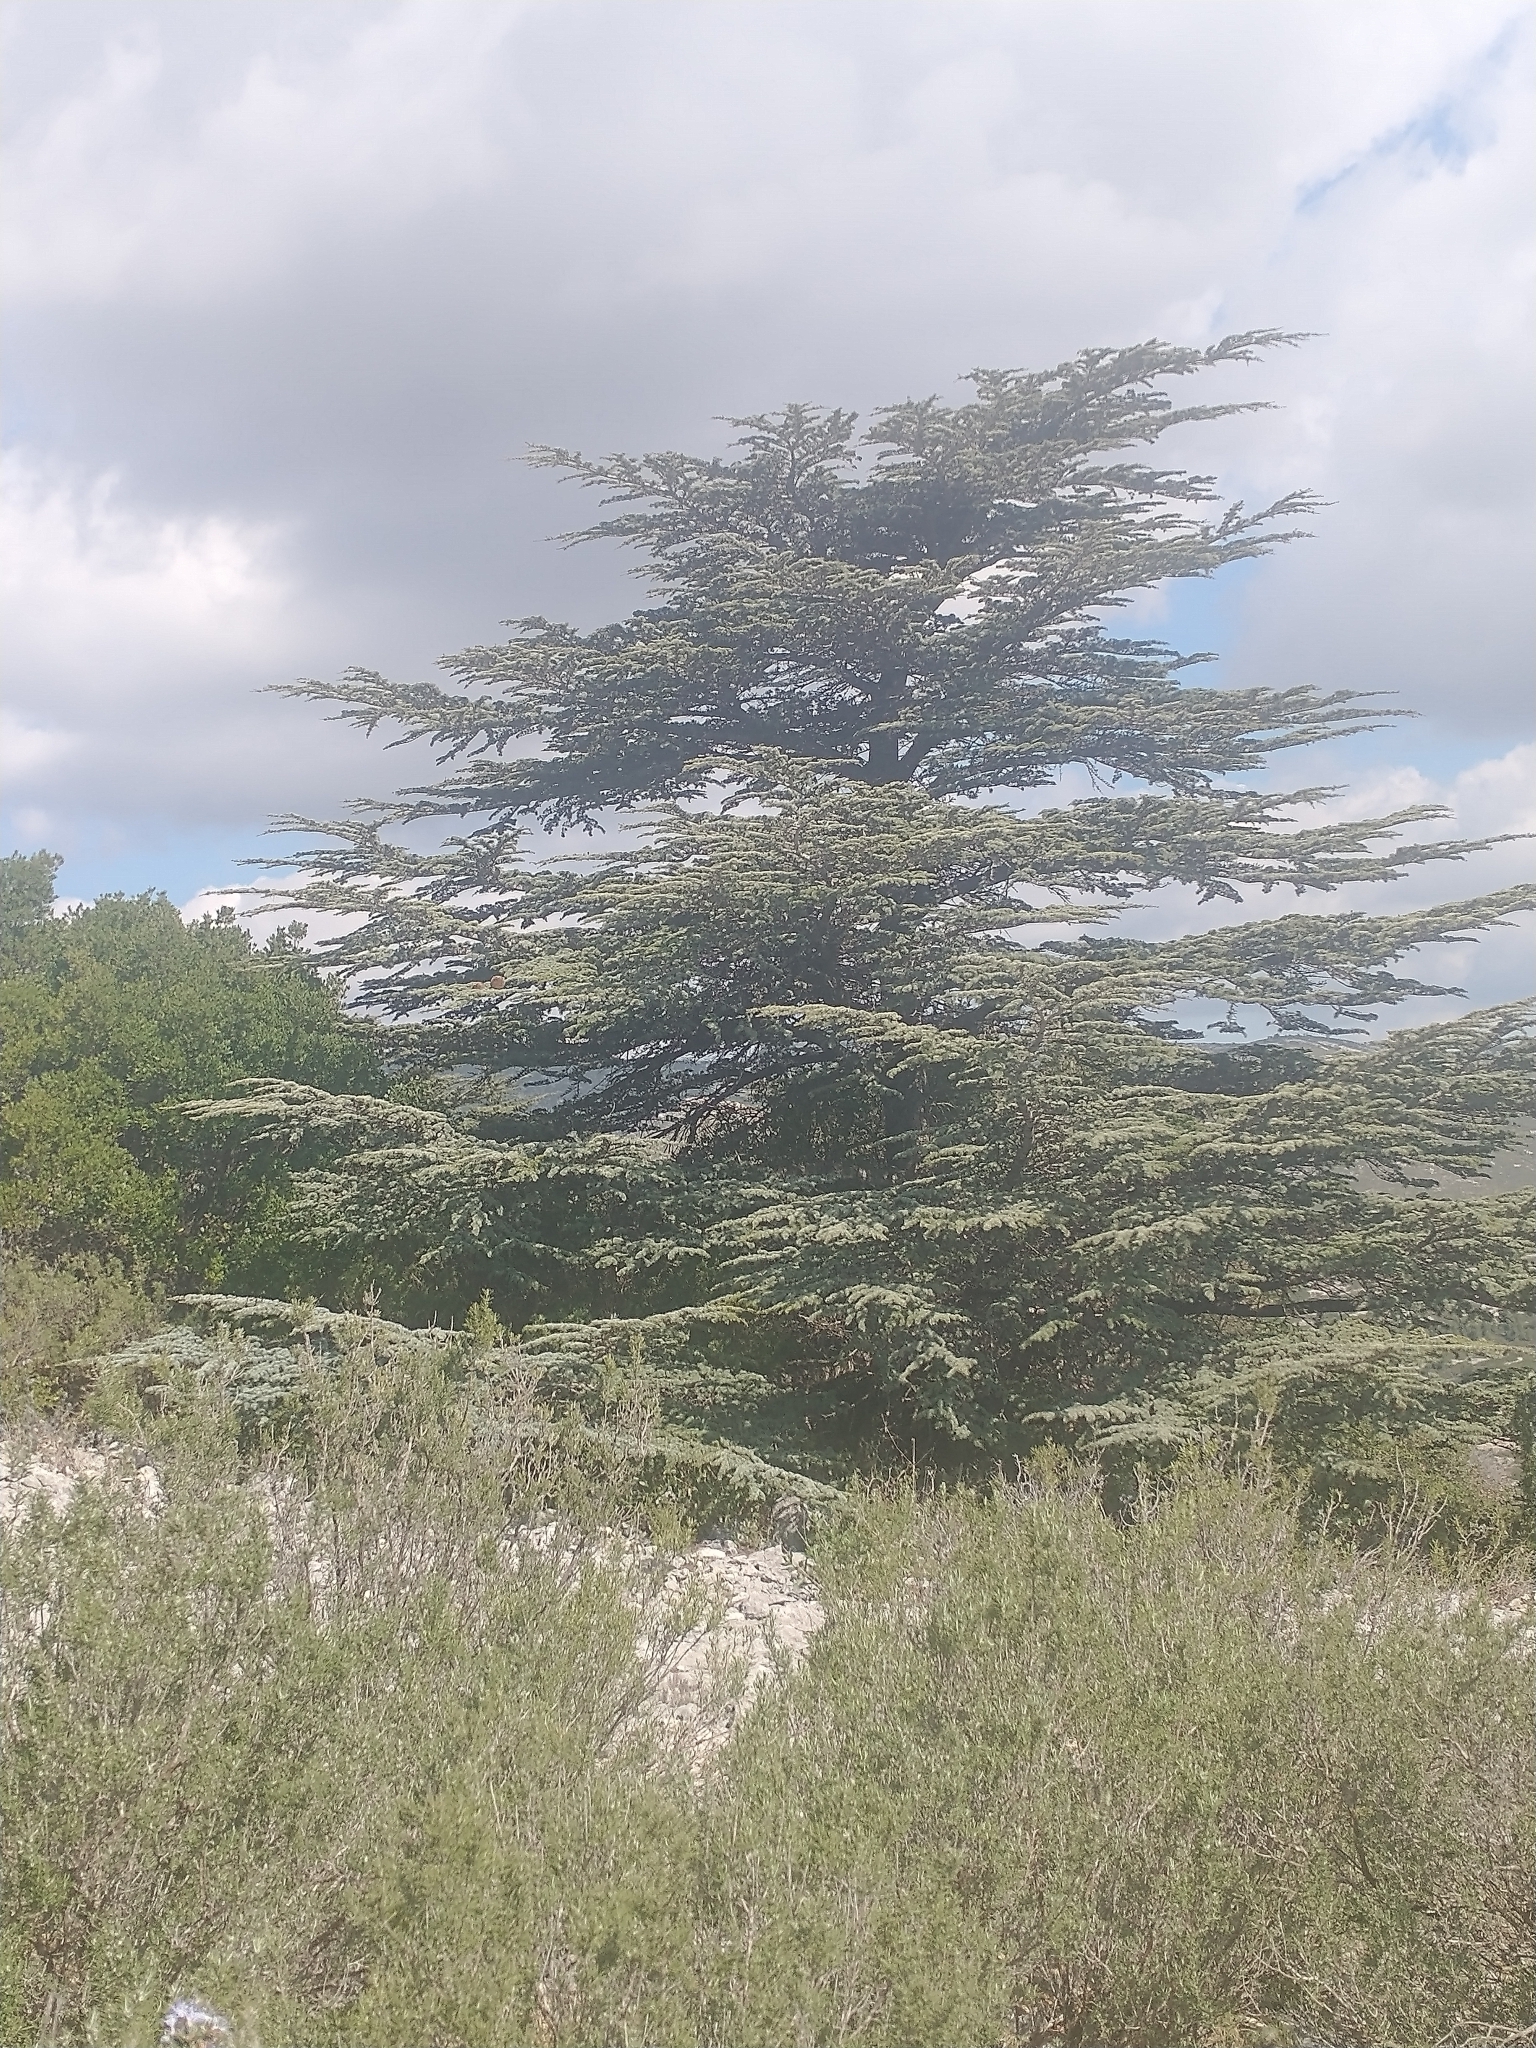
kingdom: Plantae
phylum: Tracheophyta
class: Pinopsida
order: Pinales
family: Pinaceae
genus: Cedrus
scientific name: Cedrus atlantica
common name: Atlas cedar
